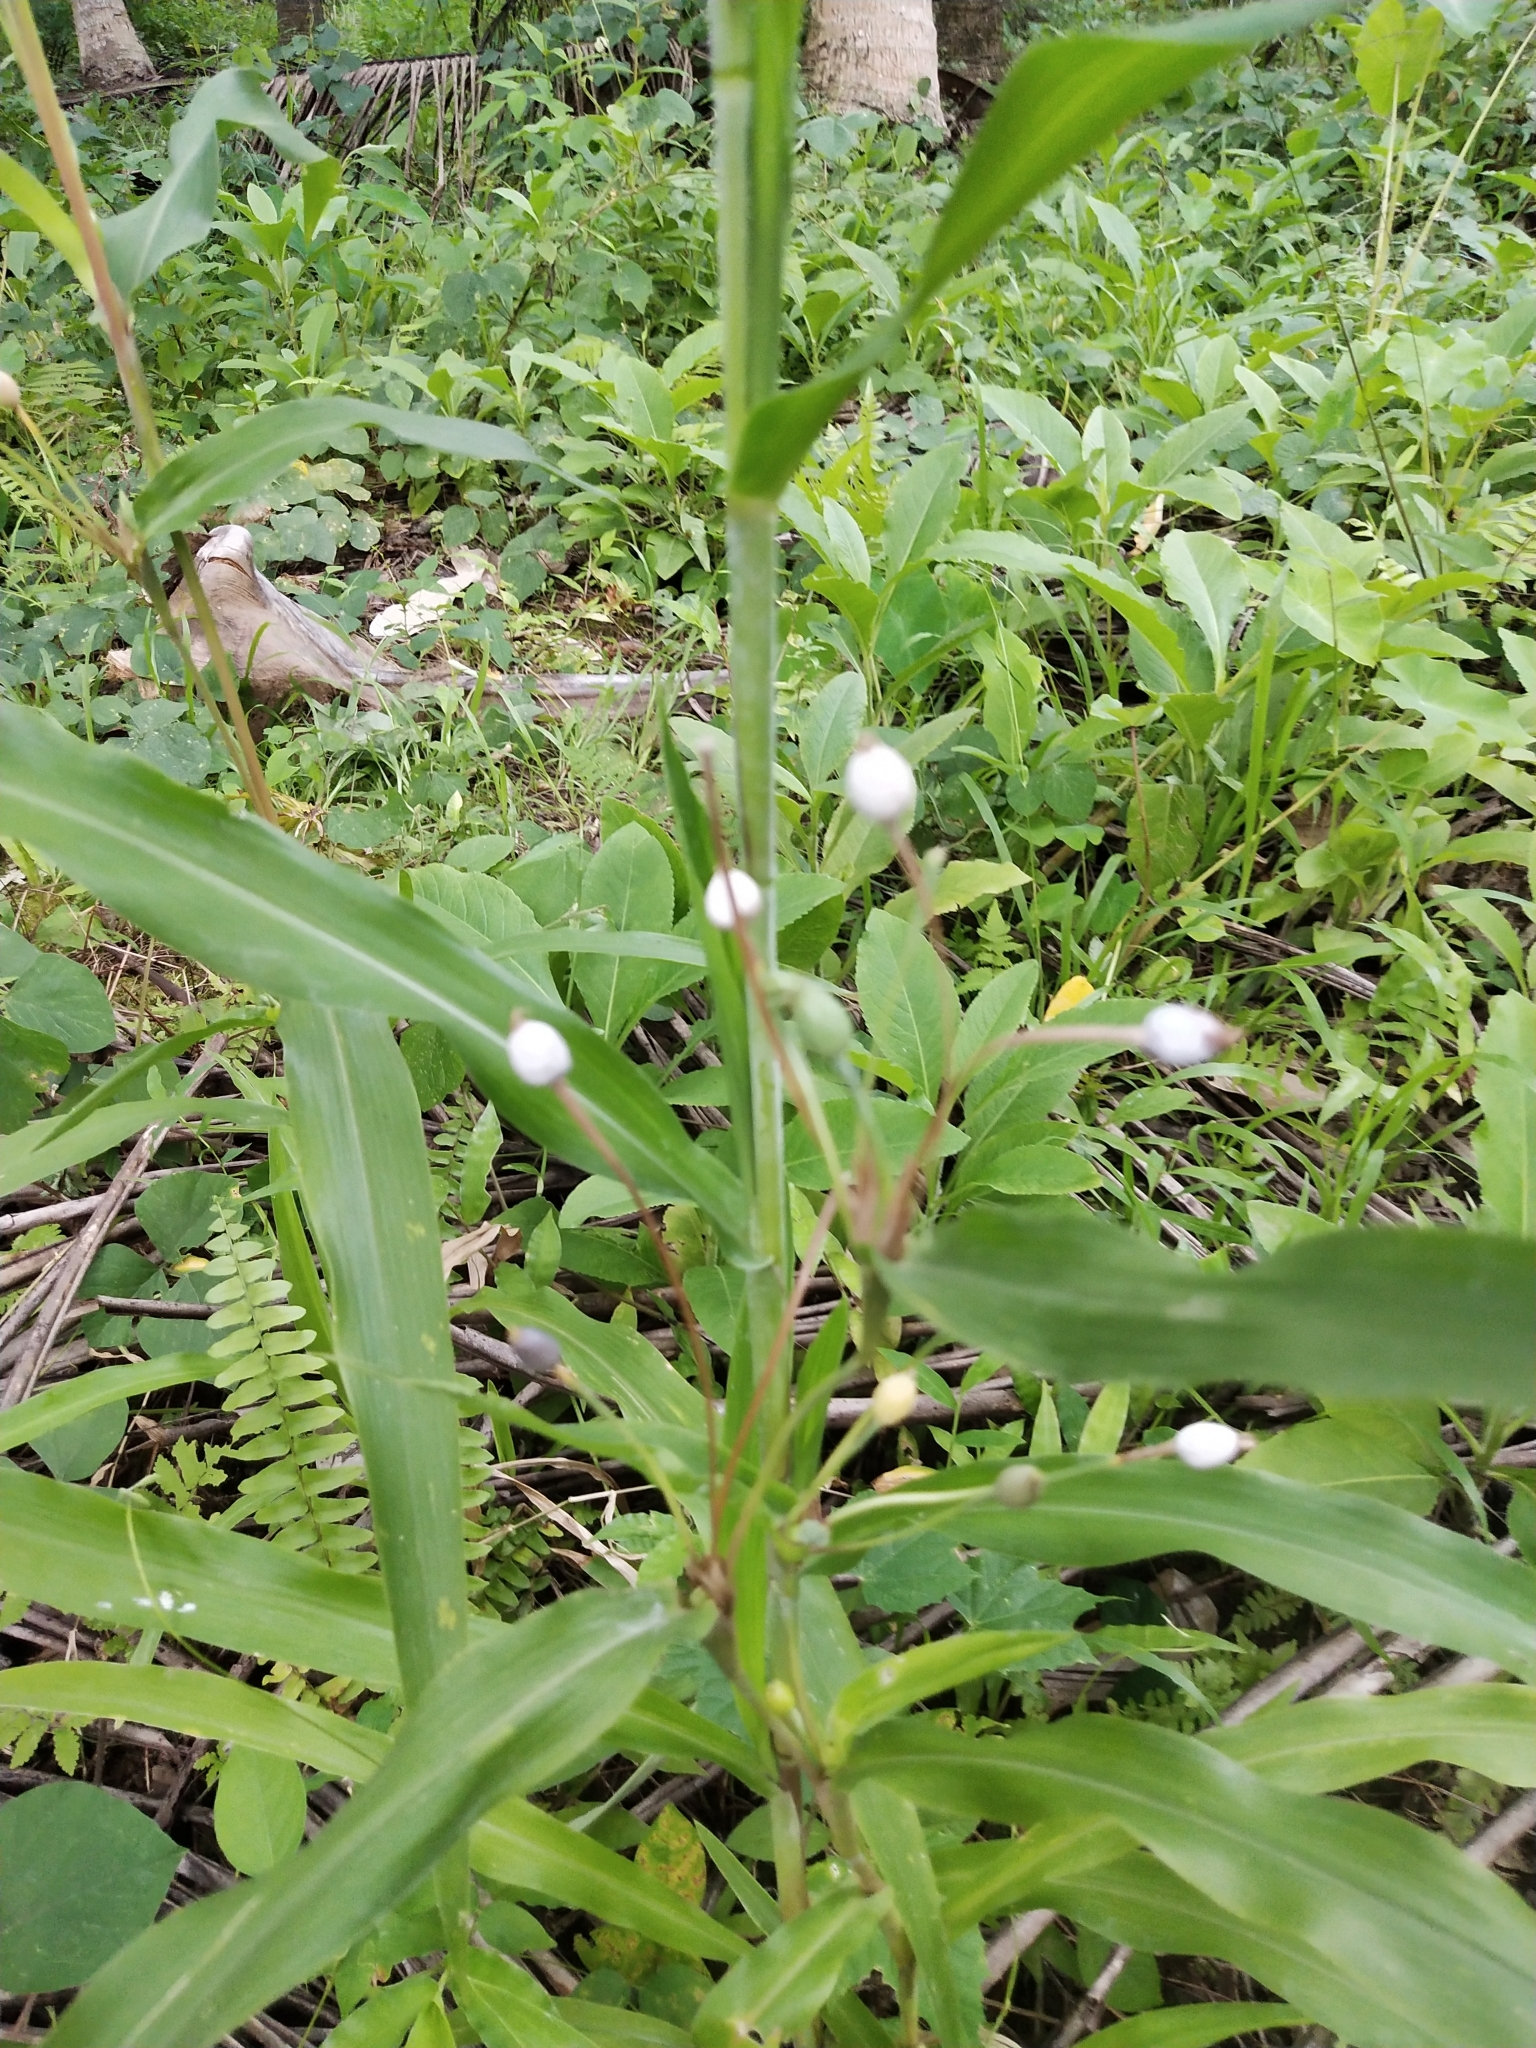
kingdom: Plantae
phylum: Tracheophyta
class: Liliopsida
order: Poales
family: Poaceae
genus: Coix
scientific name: Coix lacryma-jobi
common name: Job's tears
